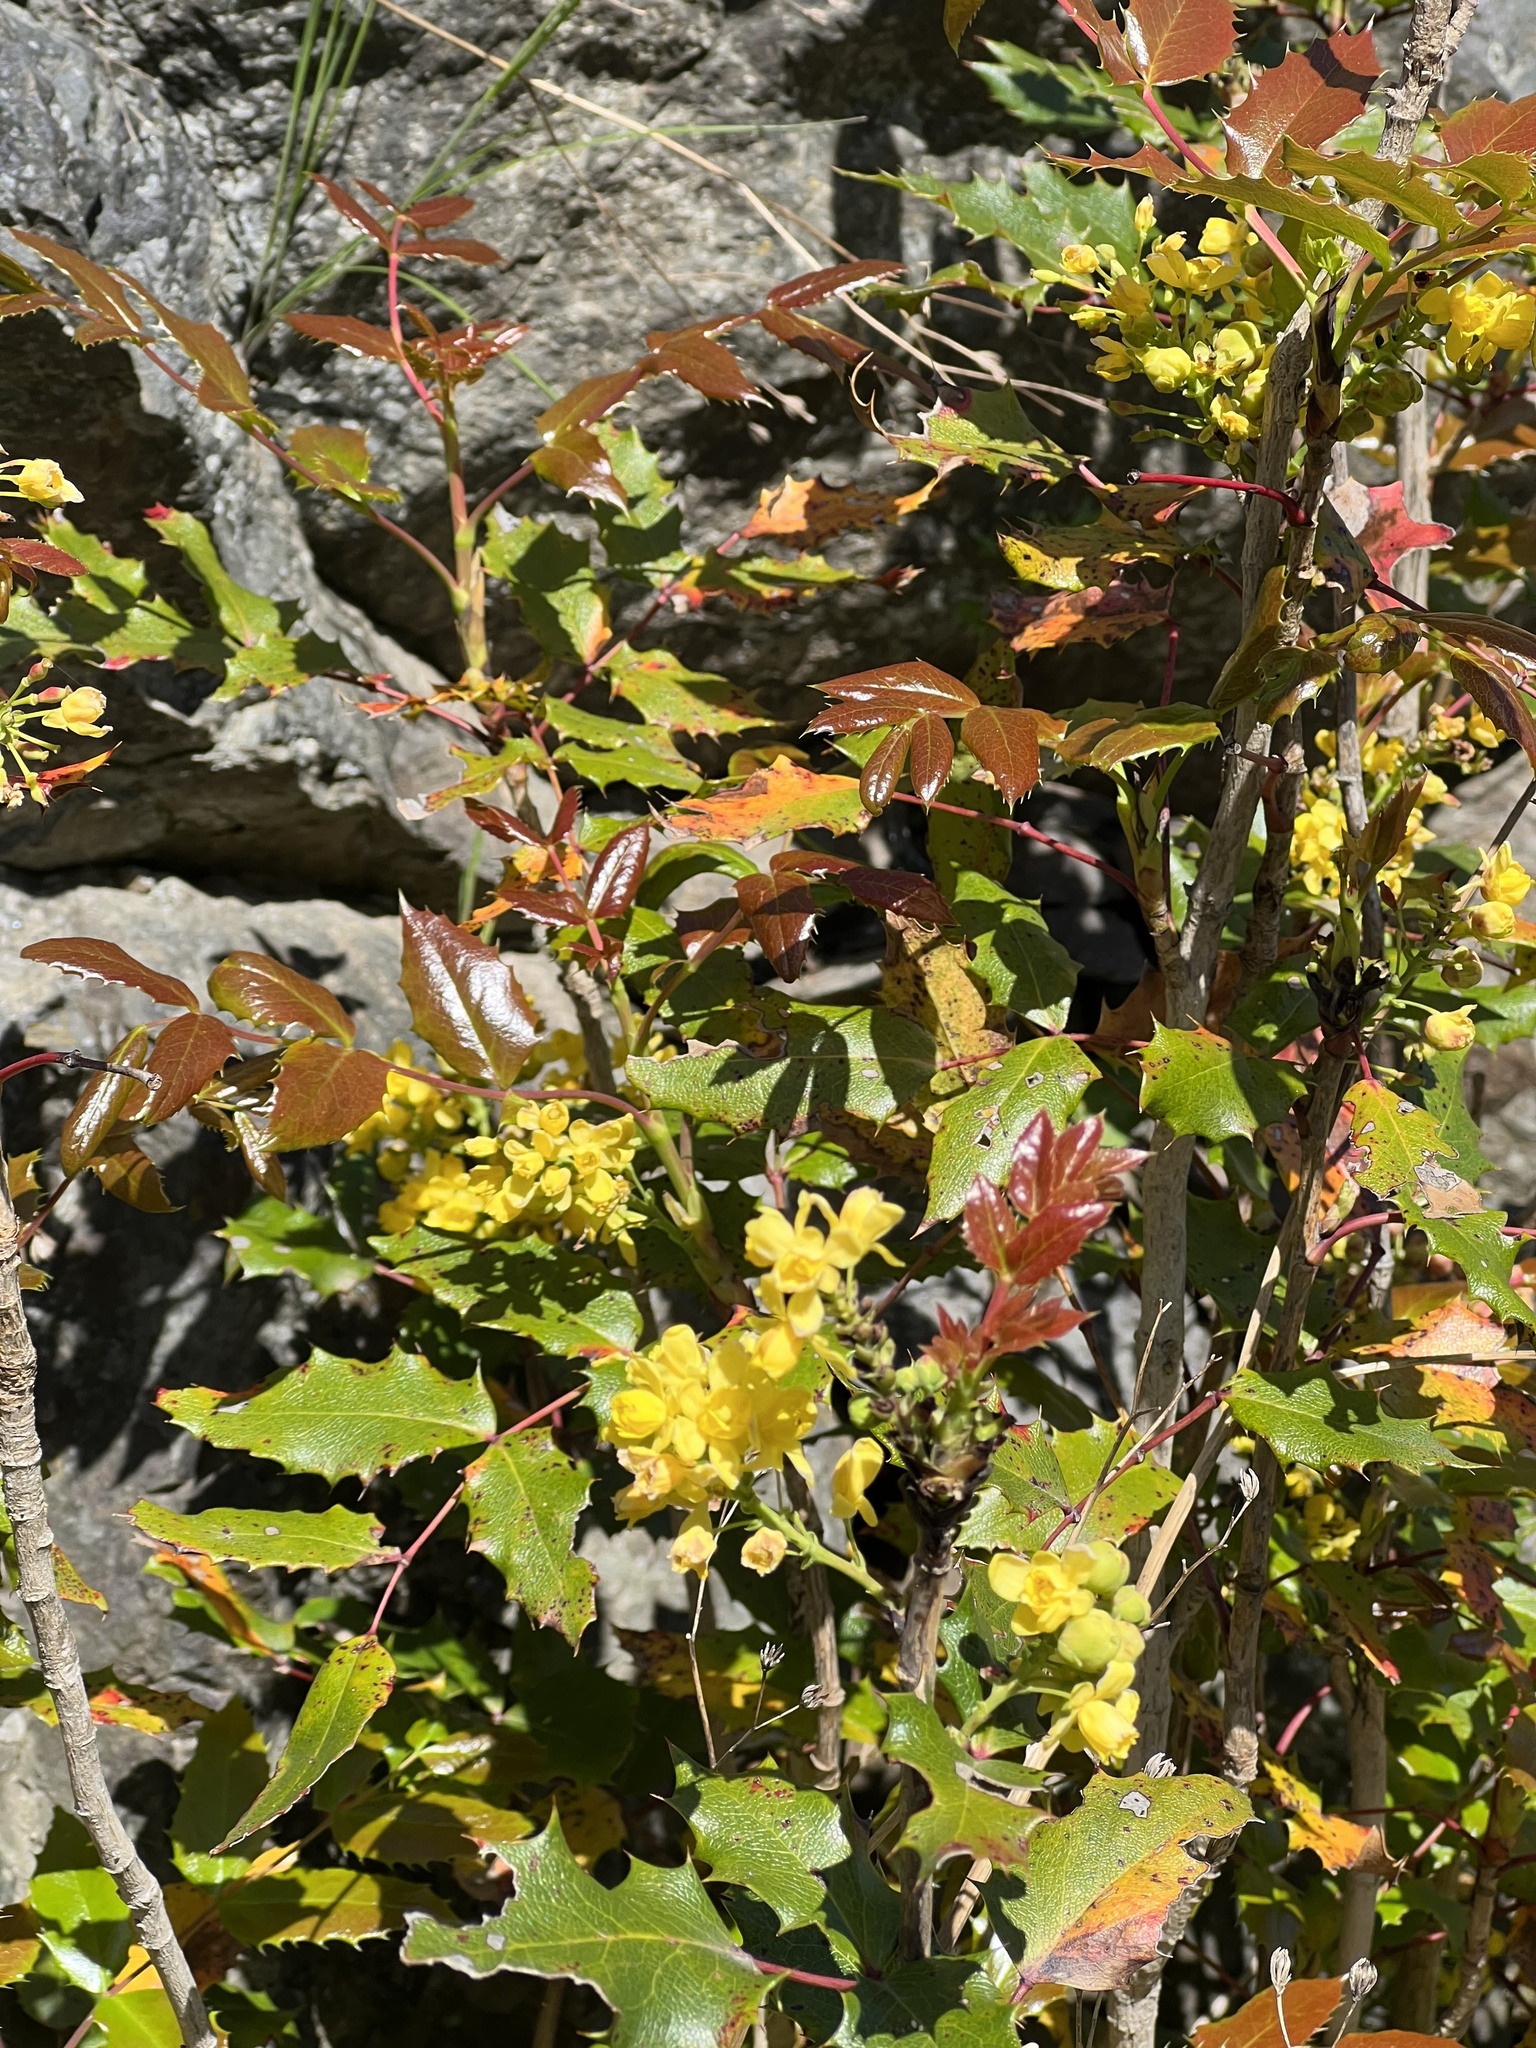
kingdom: Plantae
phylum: Tracheophyta
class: Magnoliopsida
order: Ranunculales
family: Berberidaceae
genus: Mahonia
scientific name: Mahonia aquifolium
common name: Oregon-grape
